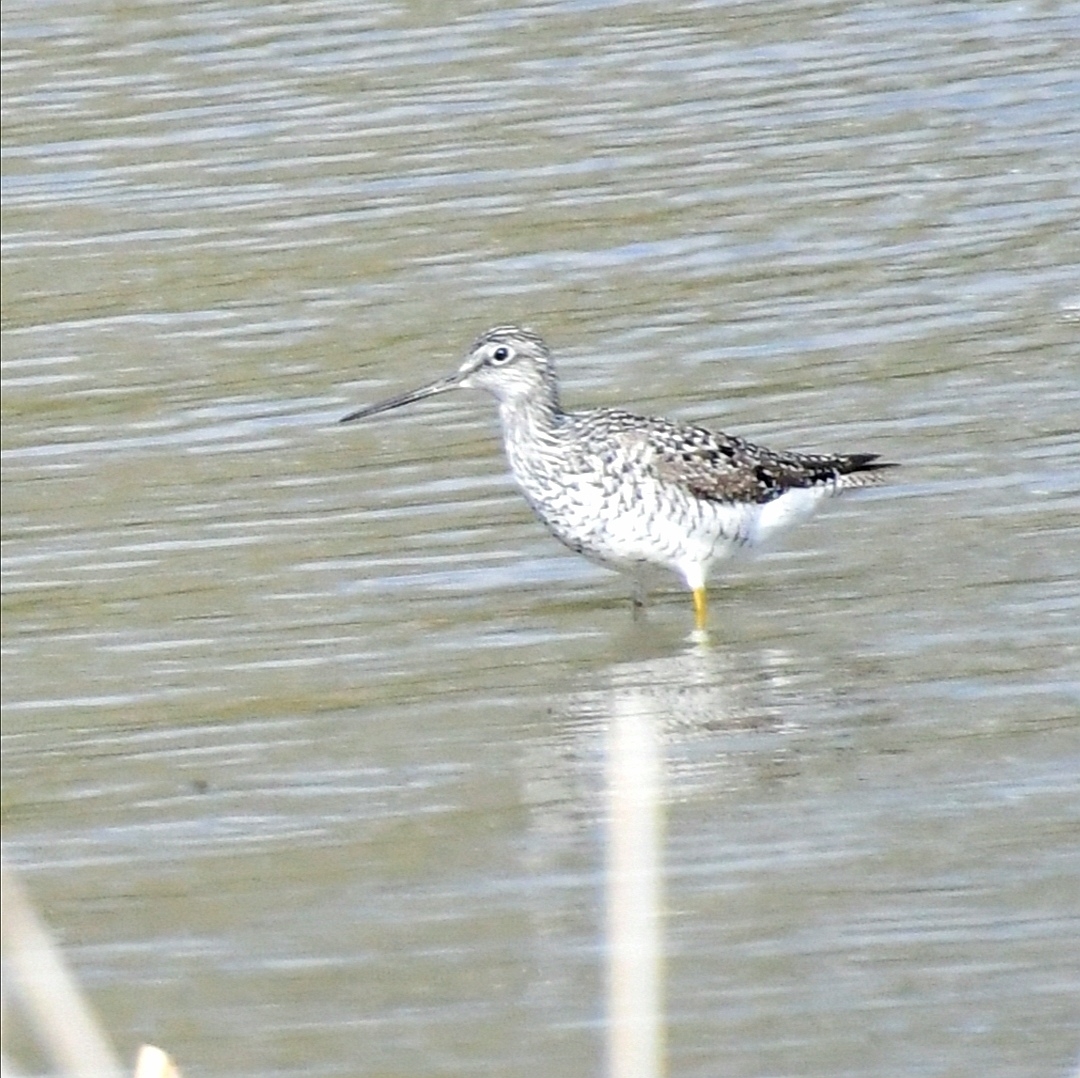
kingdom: Animalia
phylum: Chordata
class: Aves
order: Charadriiformes
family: Scolopacidae
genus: Tringa
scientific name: Tringa melanoleuca
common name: Greater yellowlegs
